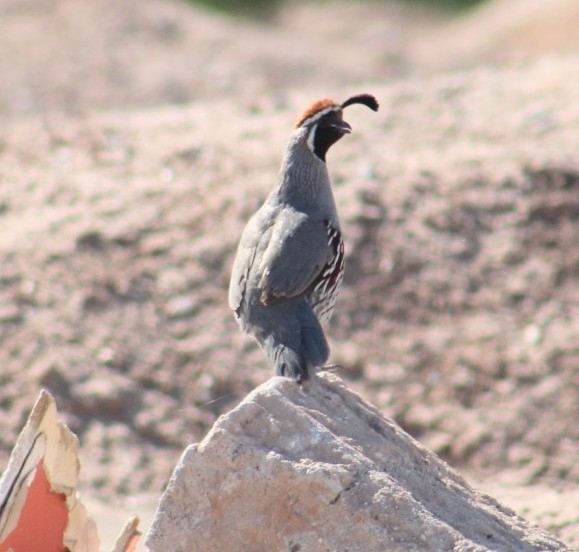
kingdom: Animalia
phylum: Chordata
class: Aves
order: Galliformes
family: Odontophoridae
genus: Callipepla
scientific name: Callipepla gambelii
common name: Gambel's quail
